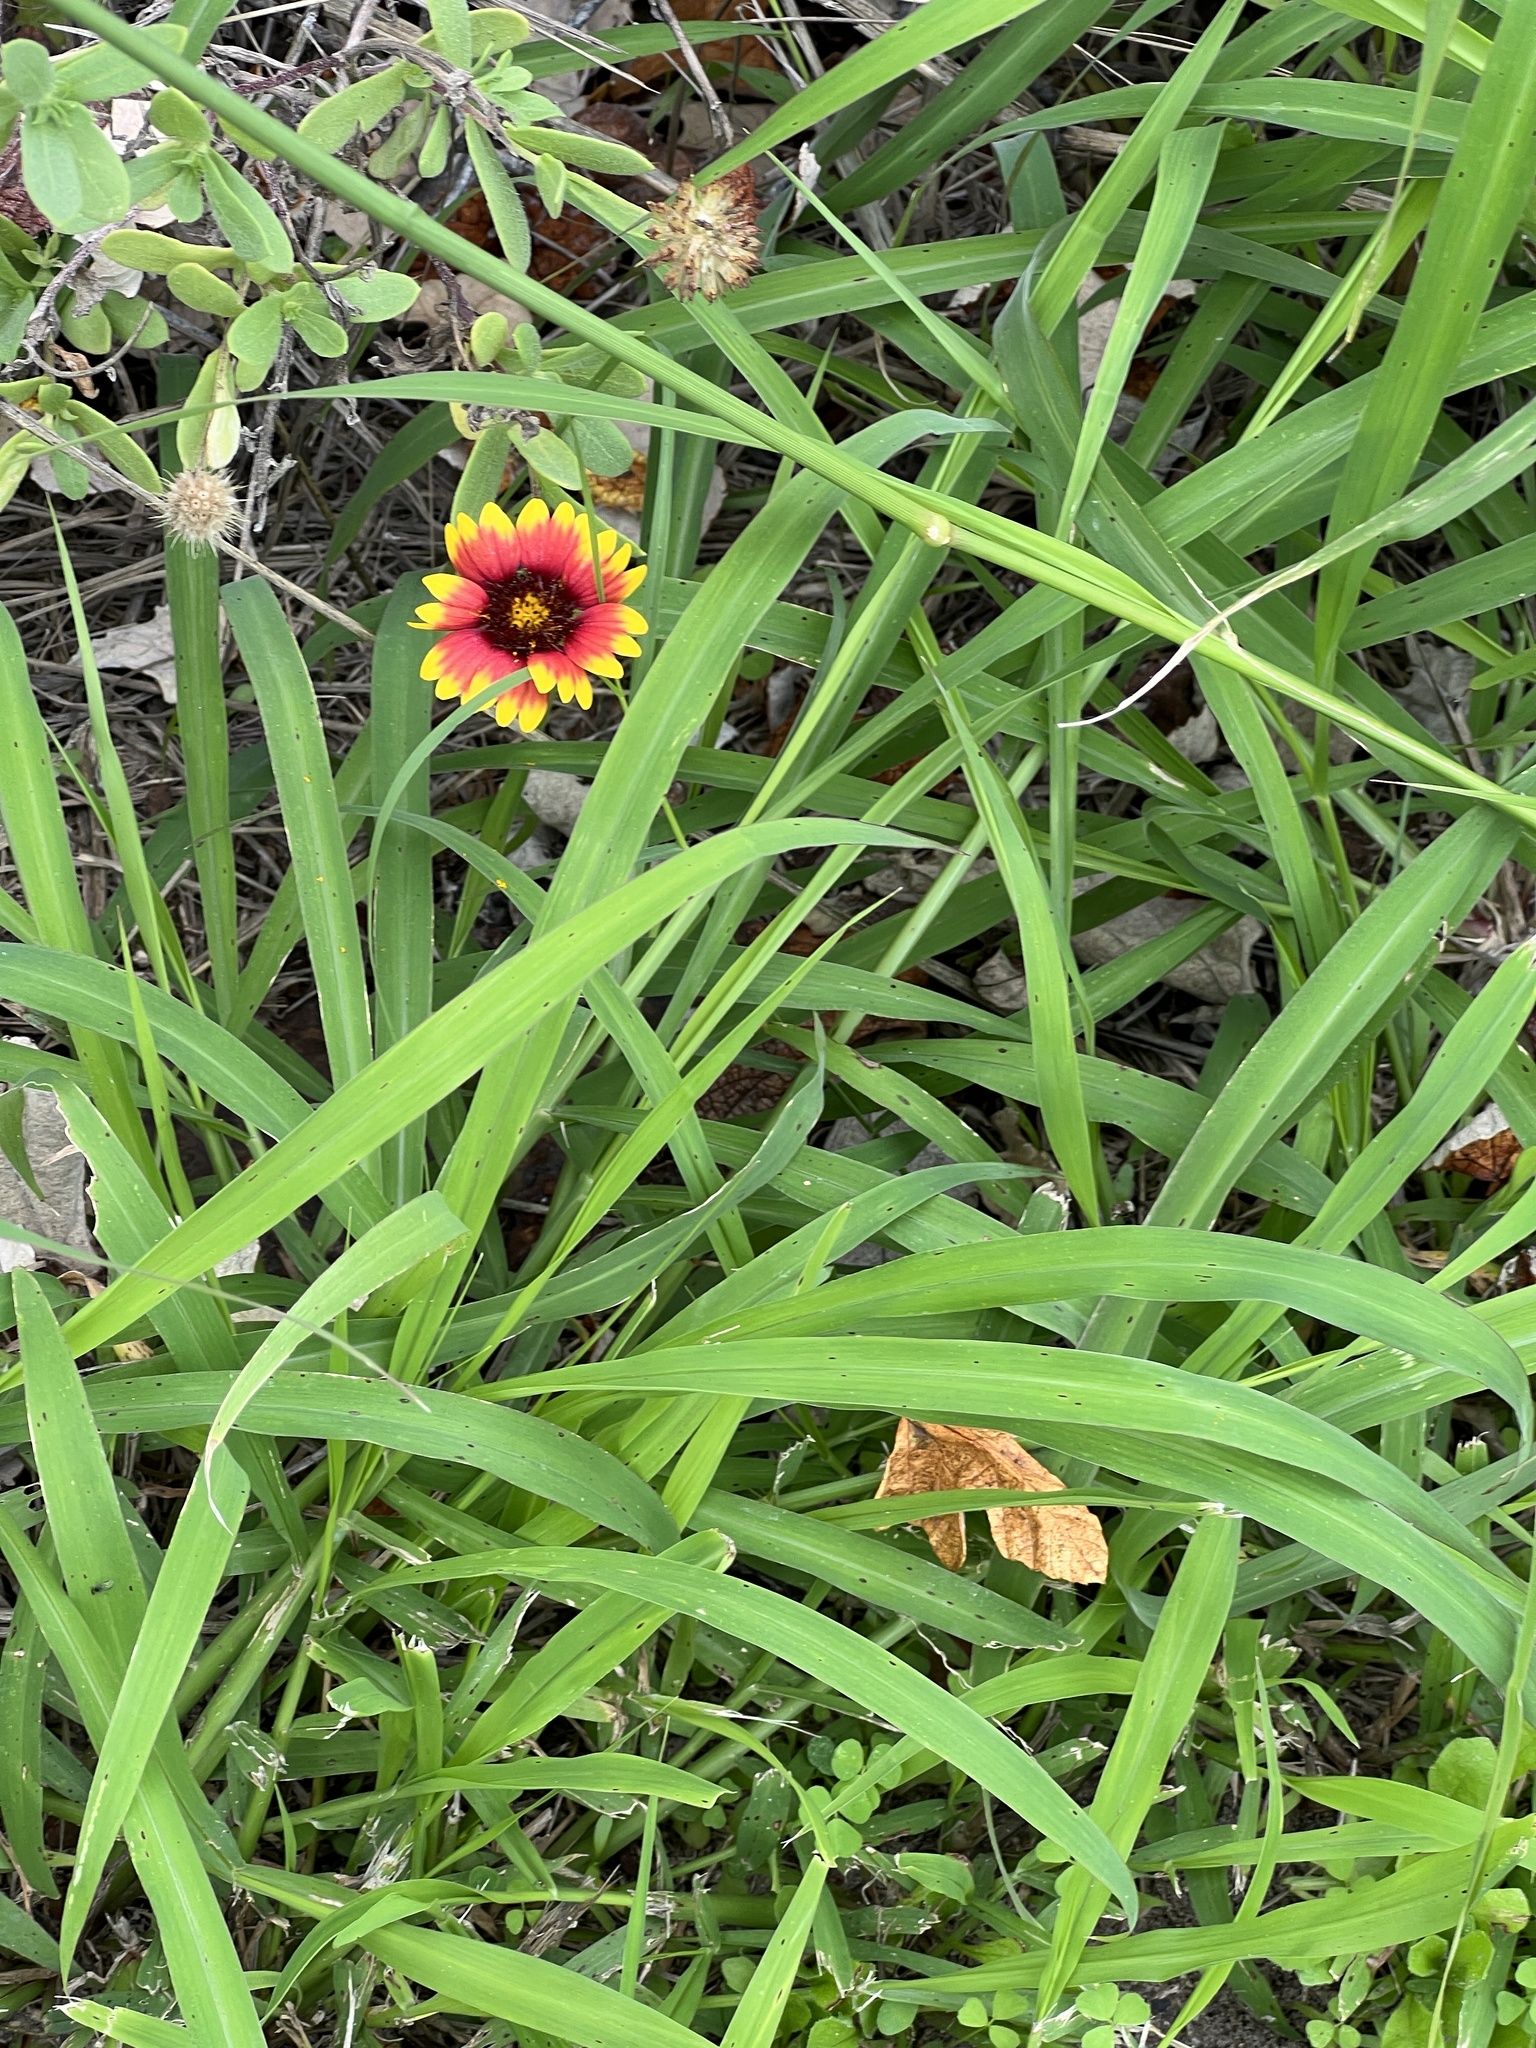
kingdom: Plantae
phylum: Tracheophyta
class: Magnoliopsida
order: Asterales
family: Asteraceae
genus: Gaillardia
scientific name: Gaillardia pulchella
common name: Firewheel
